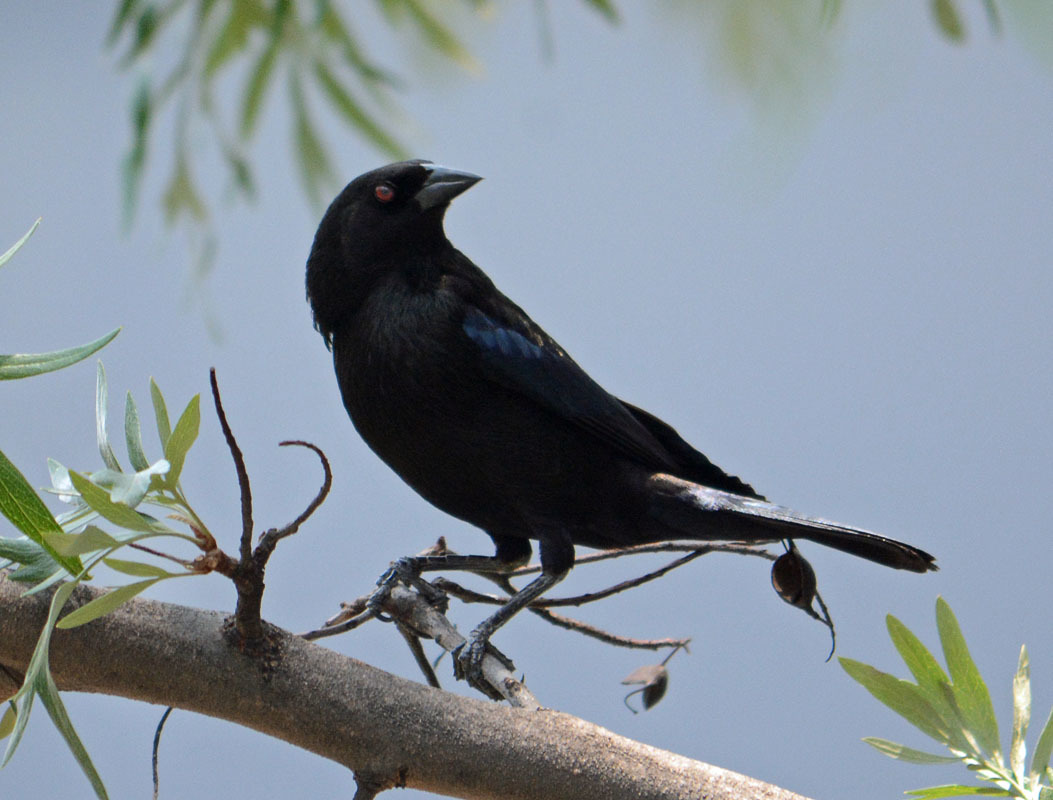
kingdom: Animalia
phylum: Chordata
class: Aves
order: Passeriformes
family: Icteridae
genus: Molothrus
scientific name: Molothrus aeneus
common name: Bronzed cowbird
